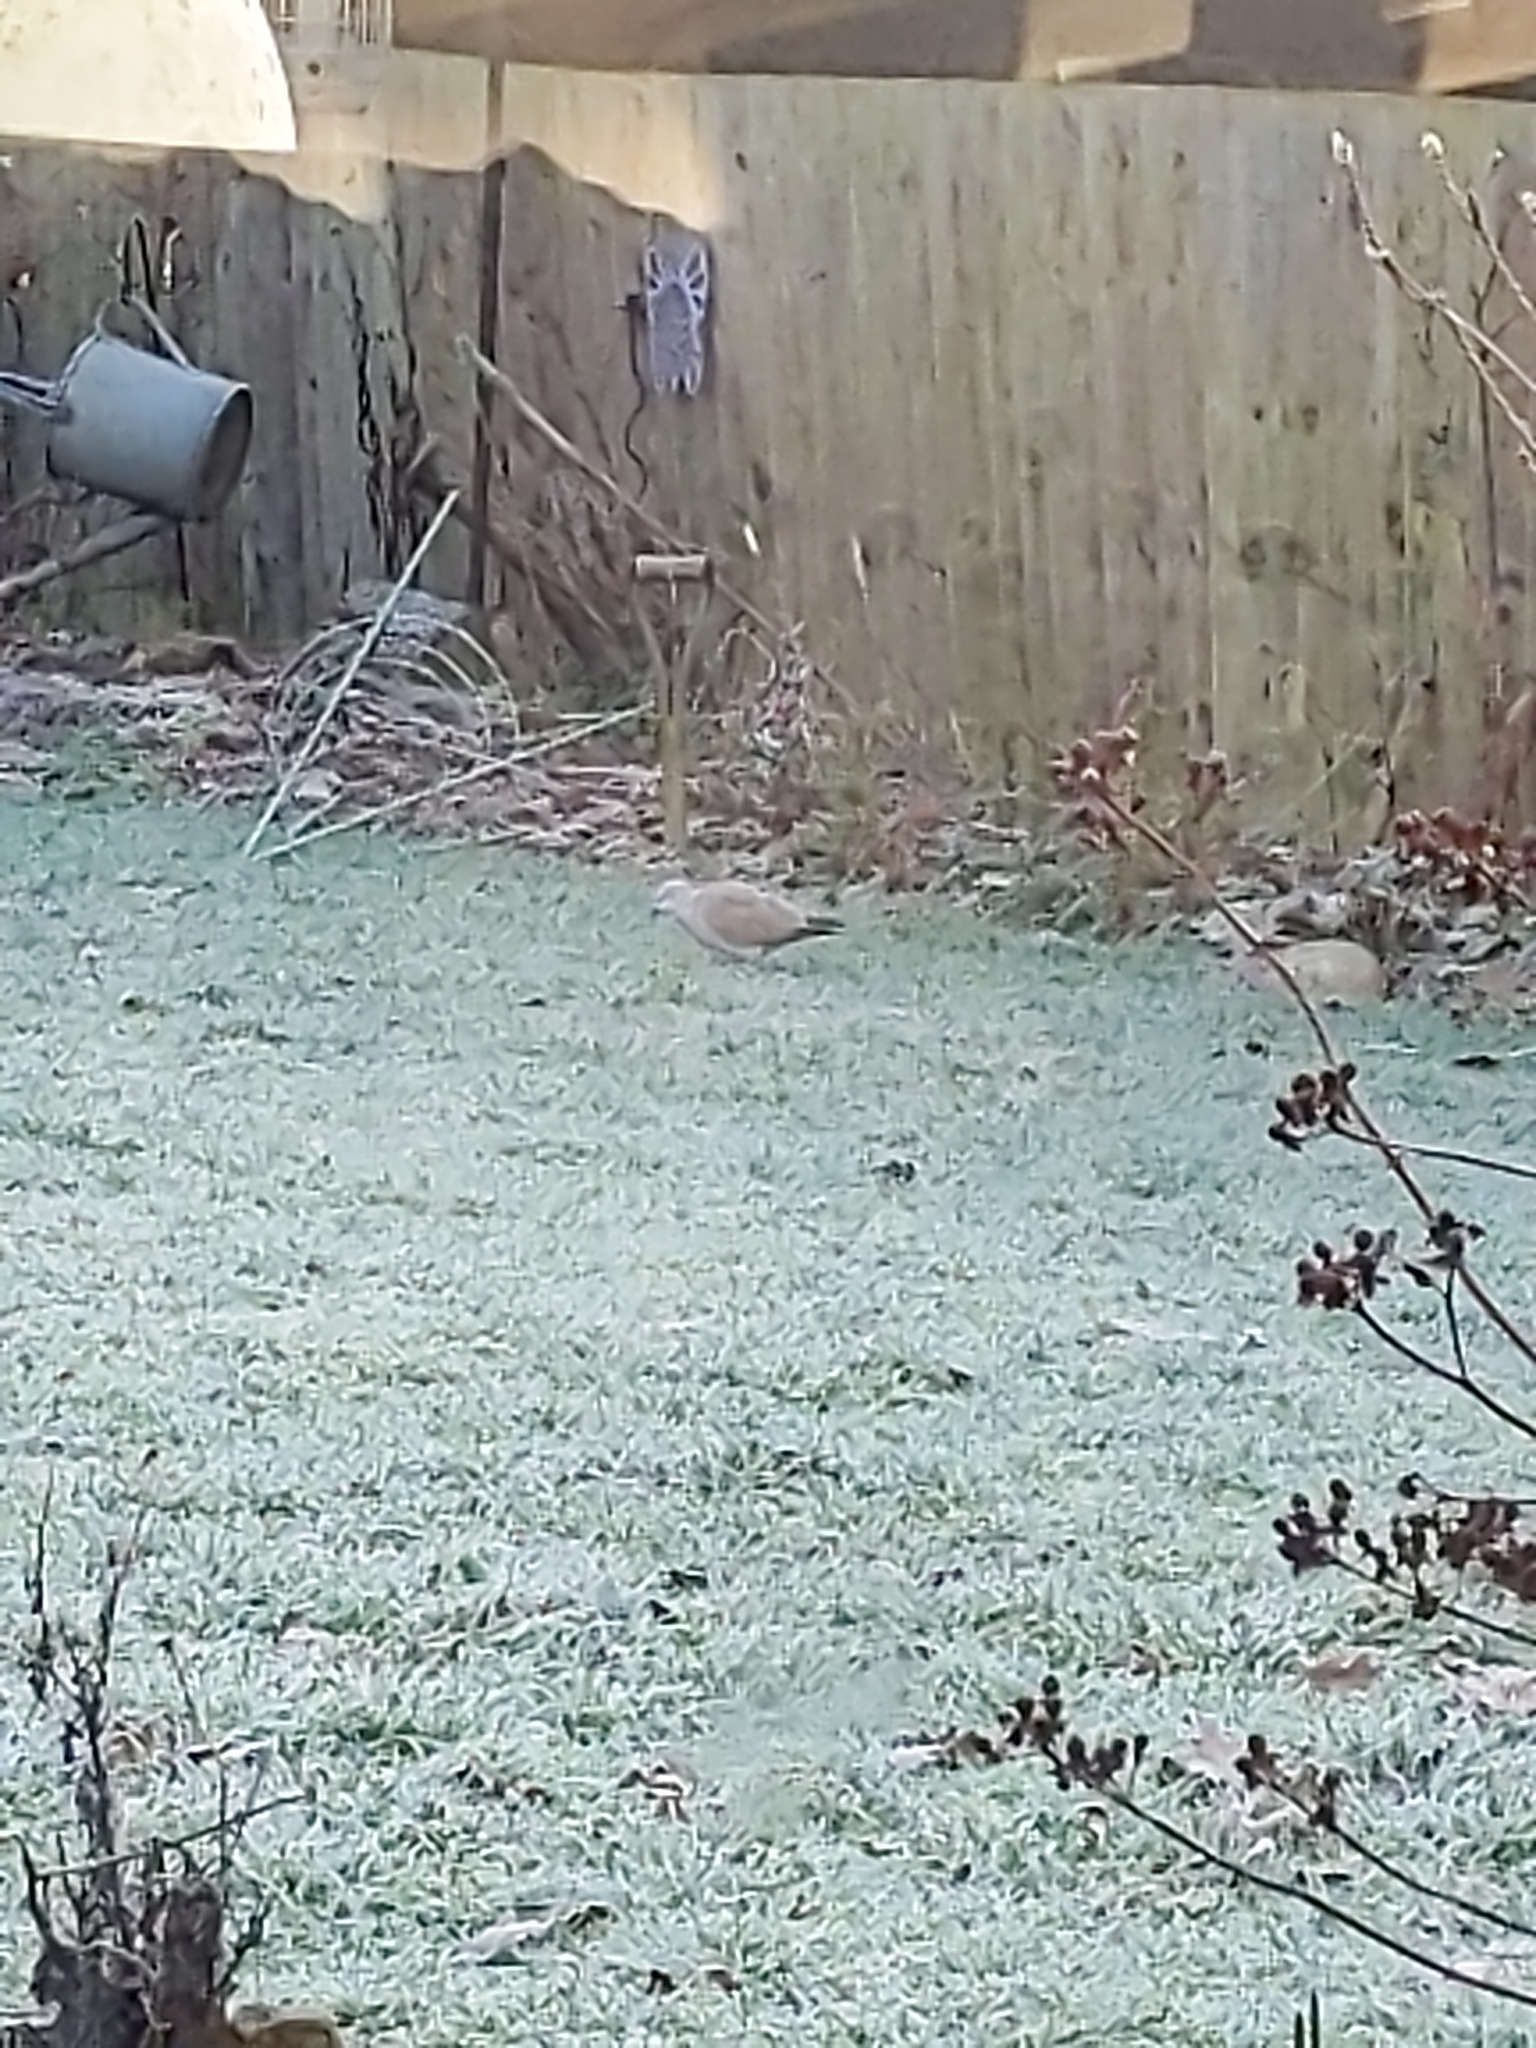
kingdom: Animalia
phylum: Chordata
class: Aves
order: Columbiformes
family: Columbidae
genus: Streptopelia
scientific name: Streptopelia decaocto
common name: Eurasian collared dove
